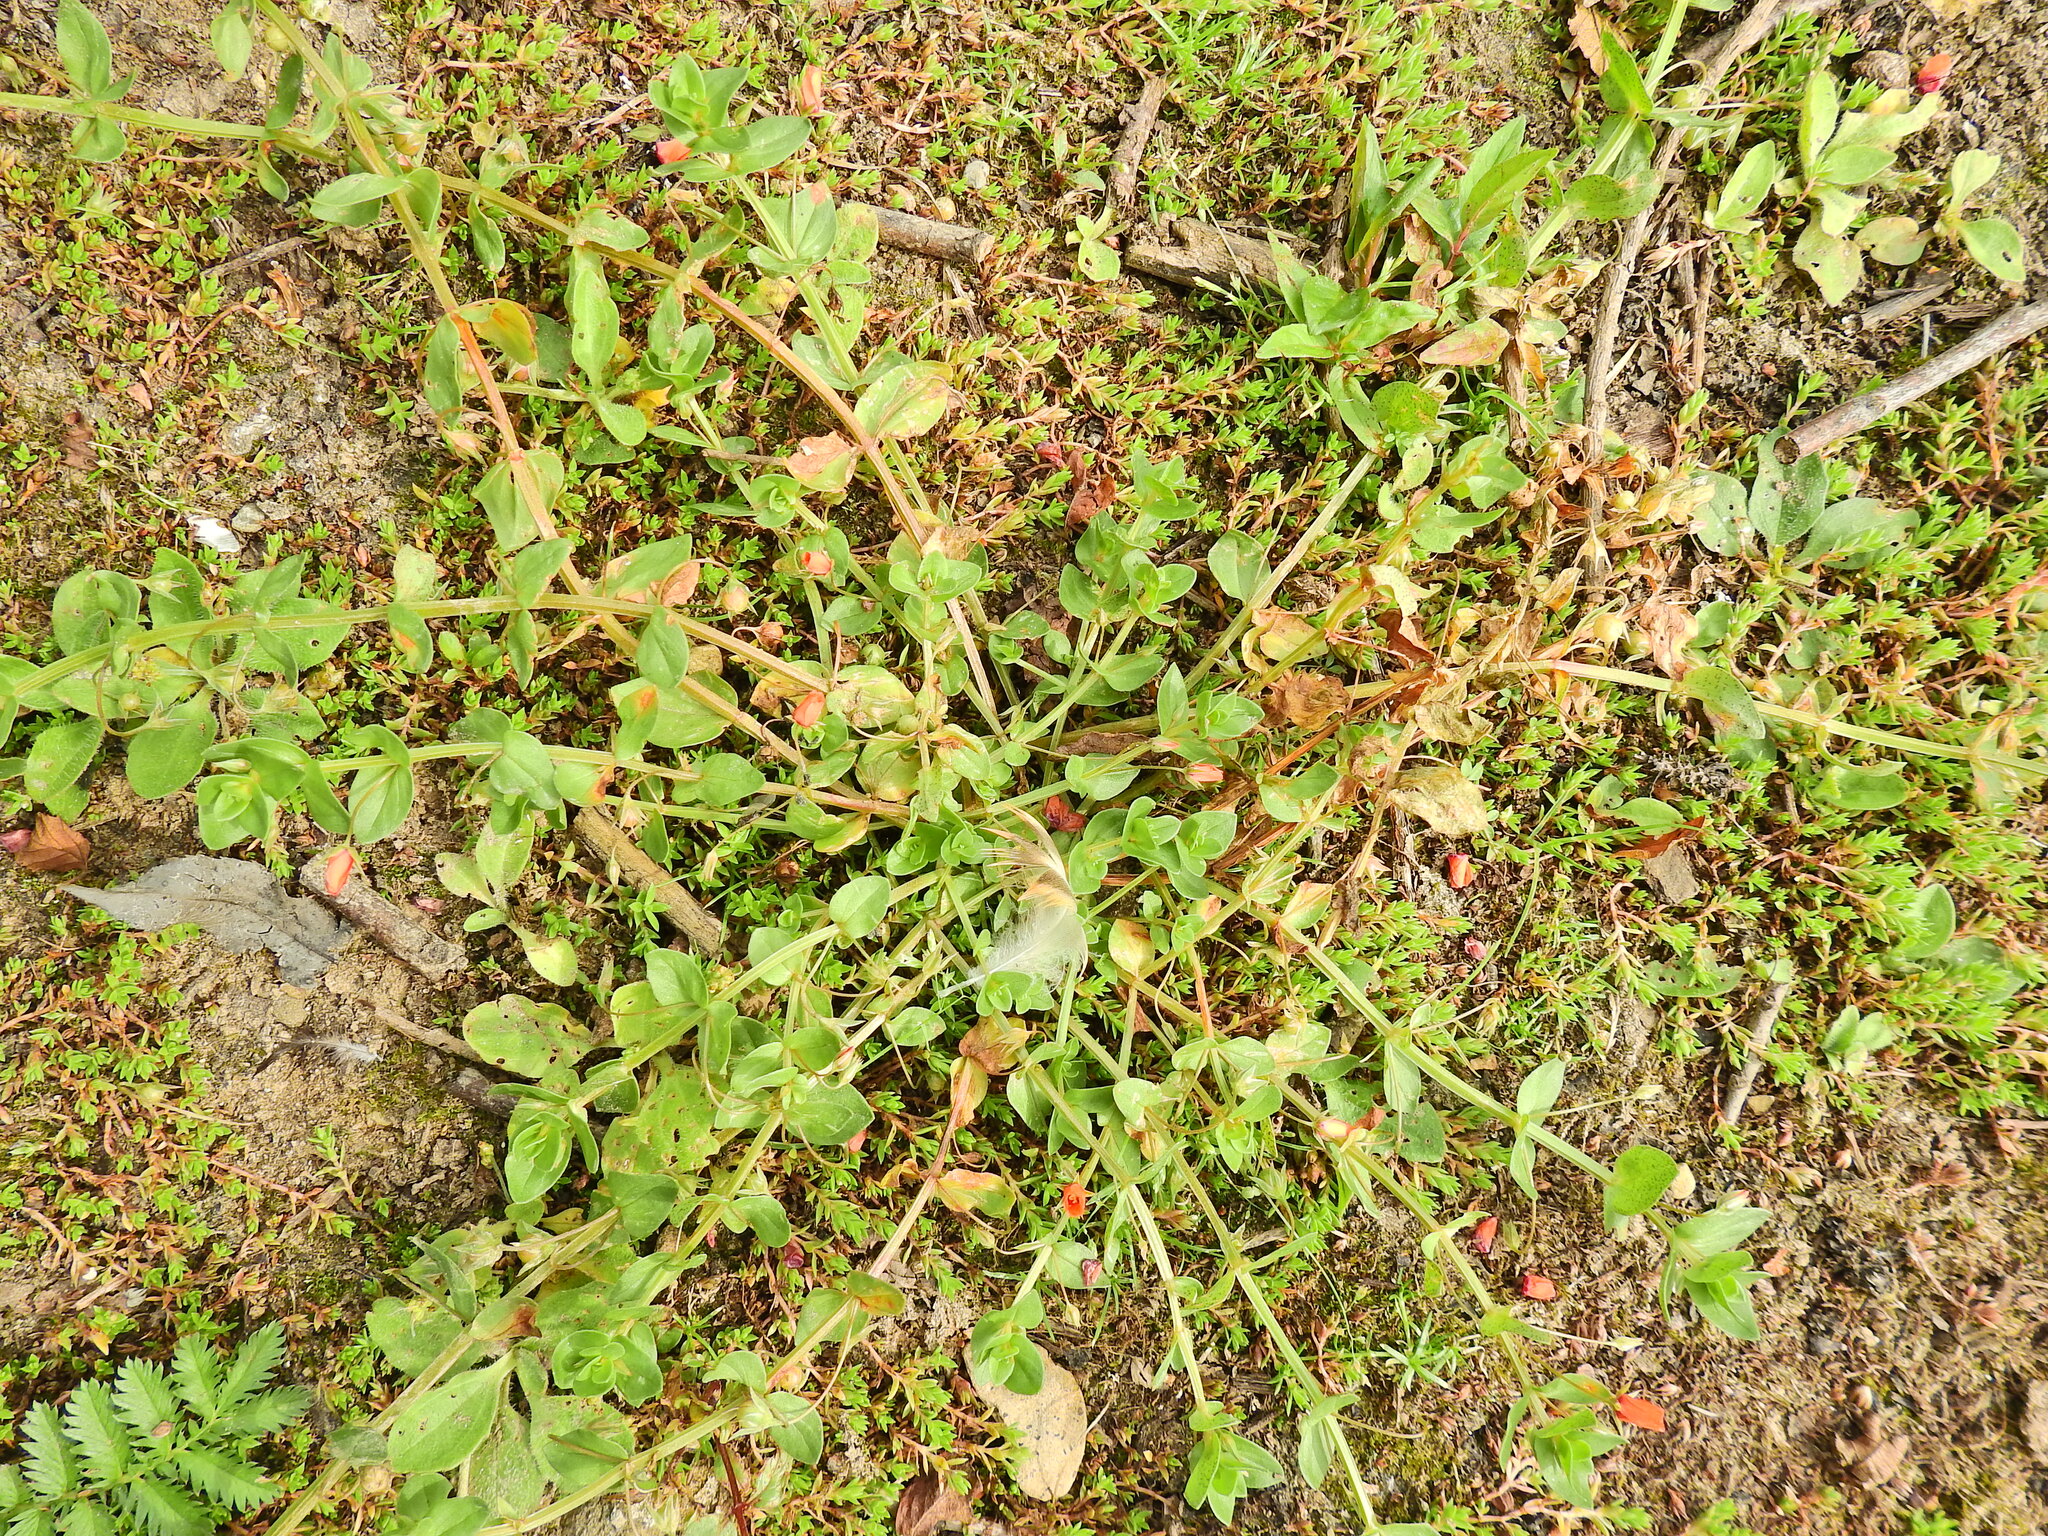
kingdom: Plantae
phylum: Tracheophyta
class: Magnoliopsida
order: Ericales
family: Primulaceae
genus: Lysimachia
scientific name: Lysimachia arvensis
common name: Scarlet pimpernel
